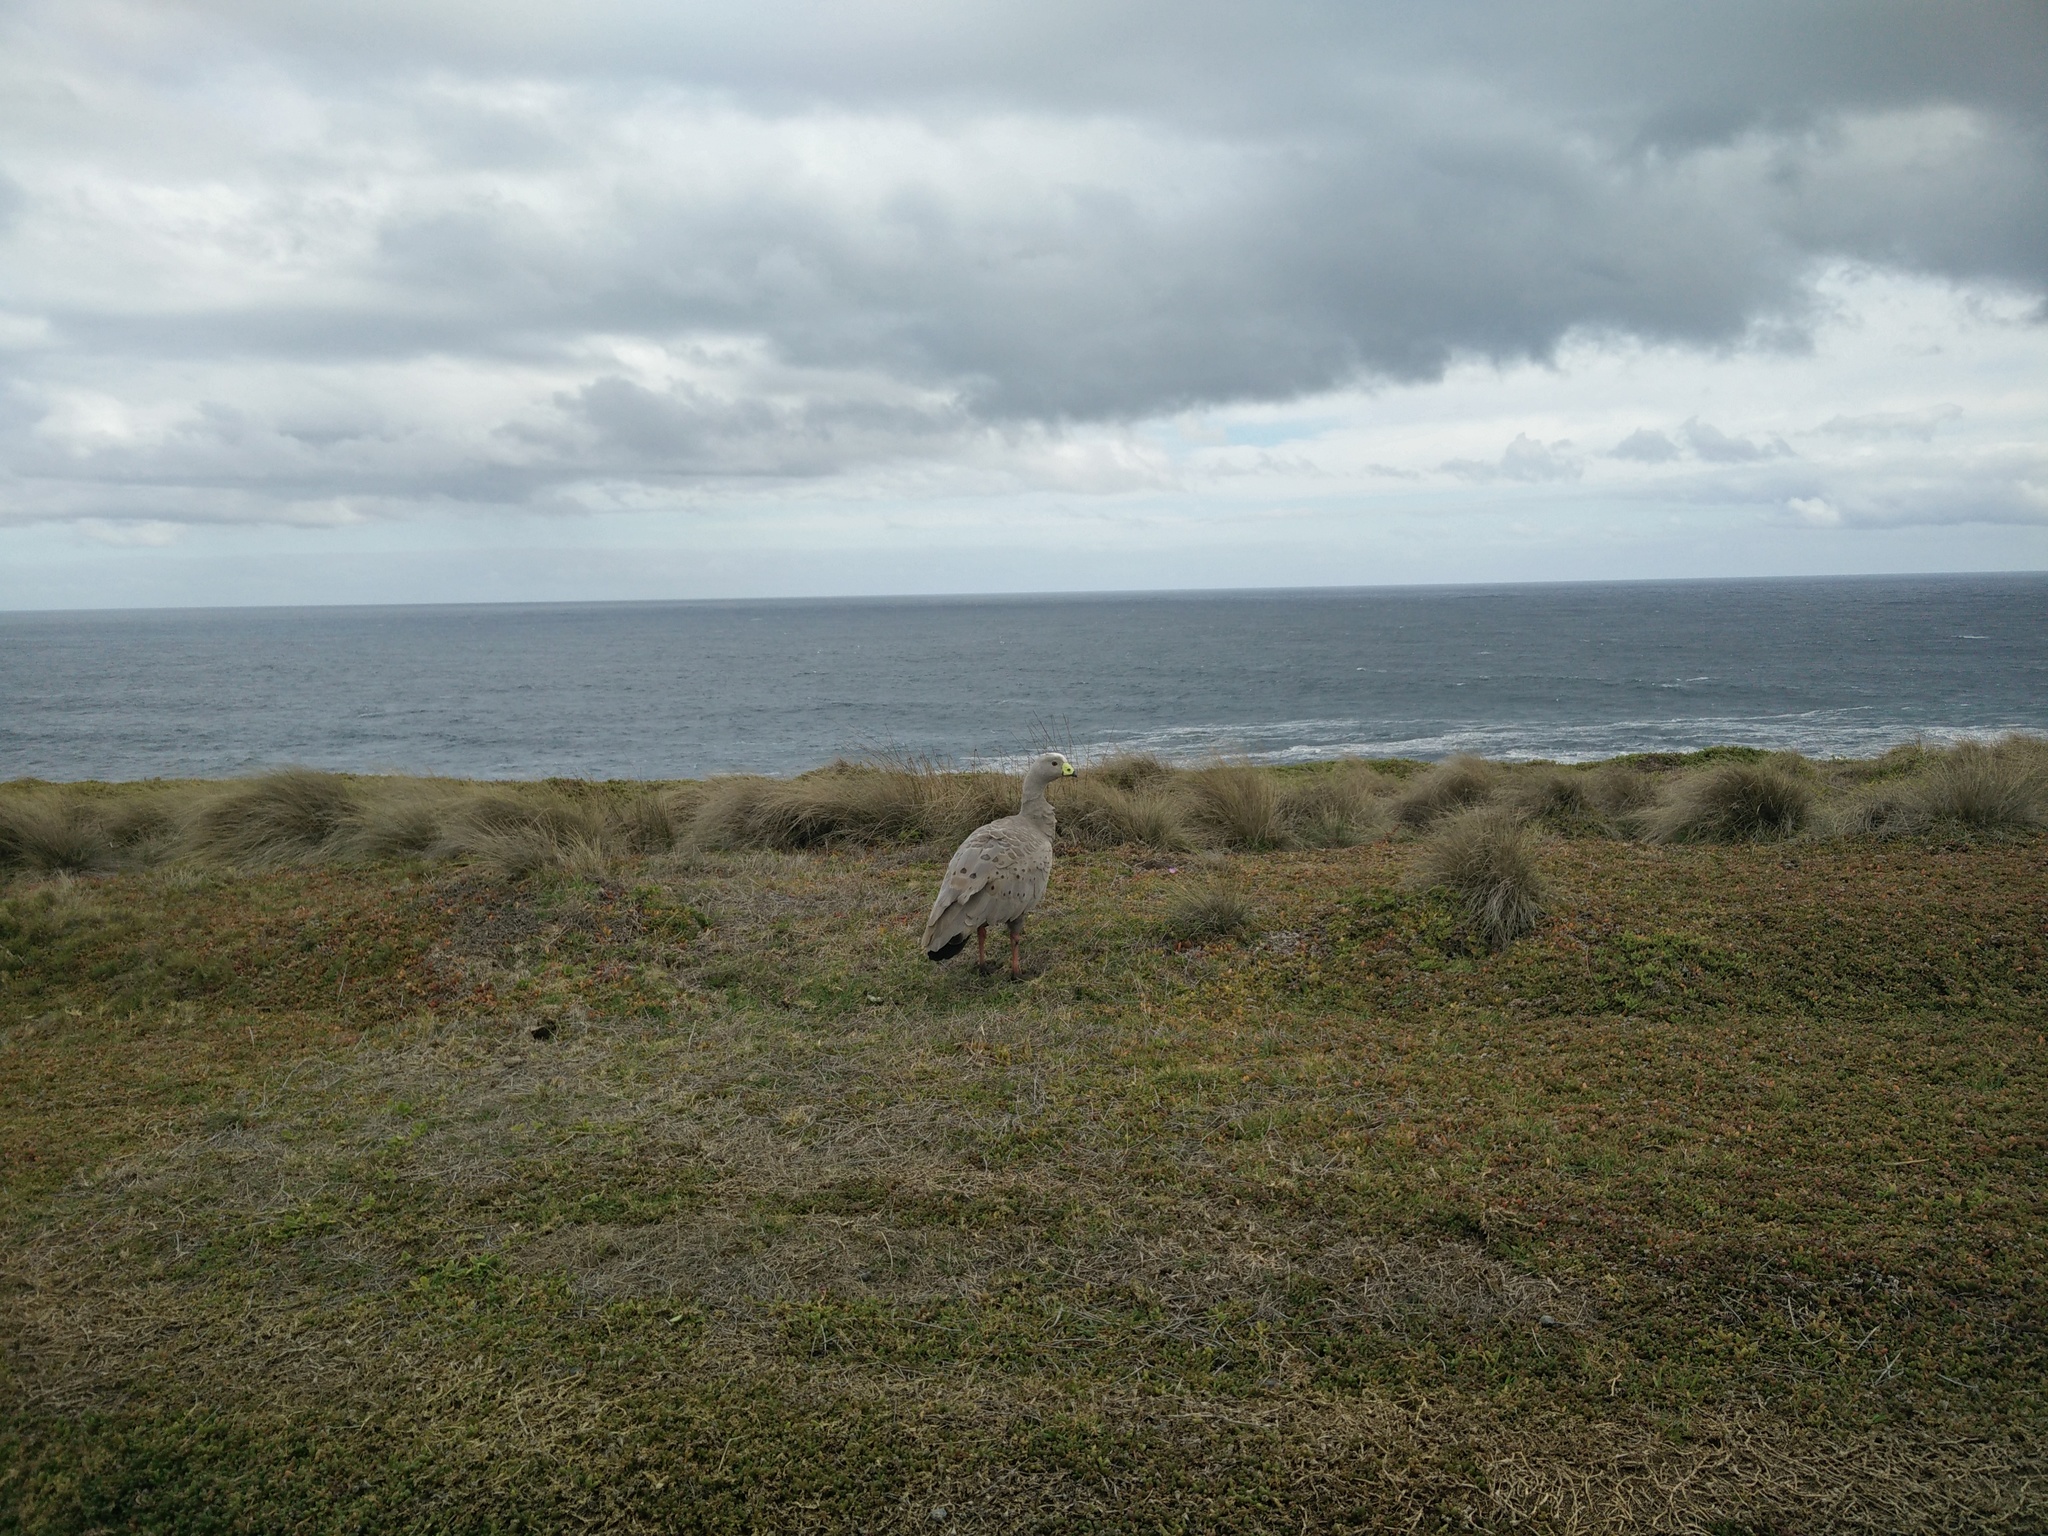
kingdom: Animalia
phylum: Chordata
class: Aves
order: Anseriformes
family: Anatidae
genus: Cereopsis
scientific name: Cereopsis novaehollandiae
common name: Cape barren goose
